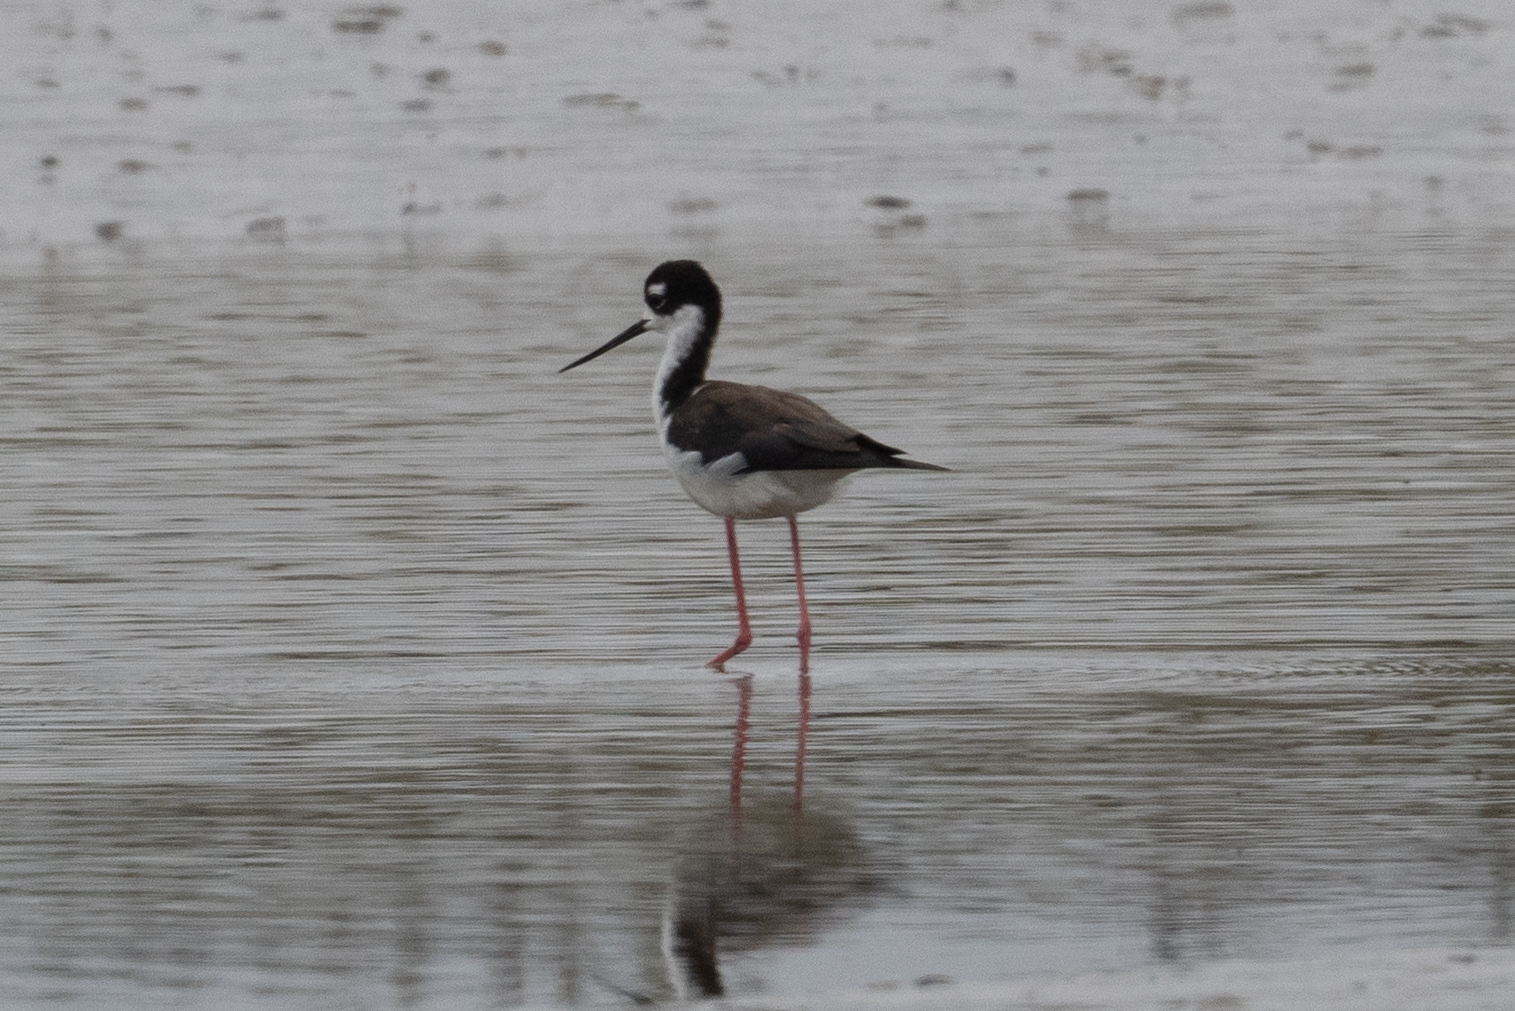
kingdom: Animalia
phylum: Chordata
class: Aves
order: Charadriiformes
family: Recurvirostridae
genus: Himantopus
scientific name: Himantopus mexicanus
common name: Black-necked stilt
